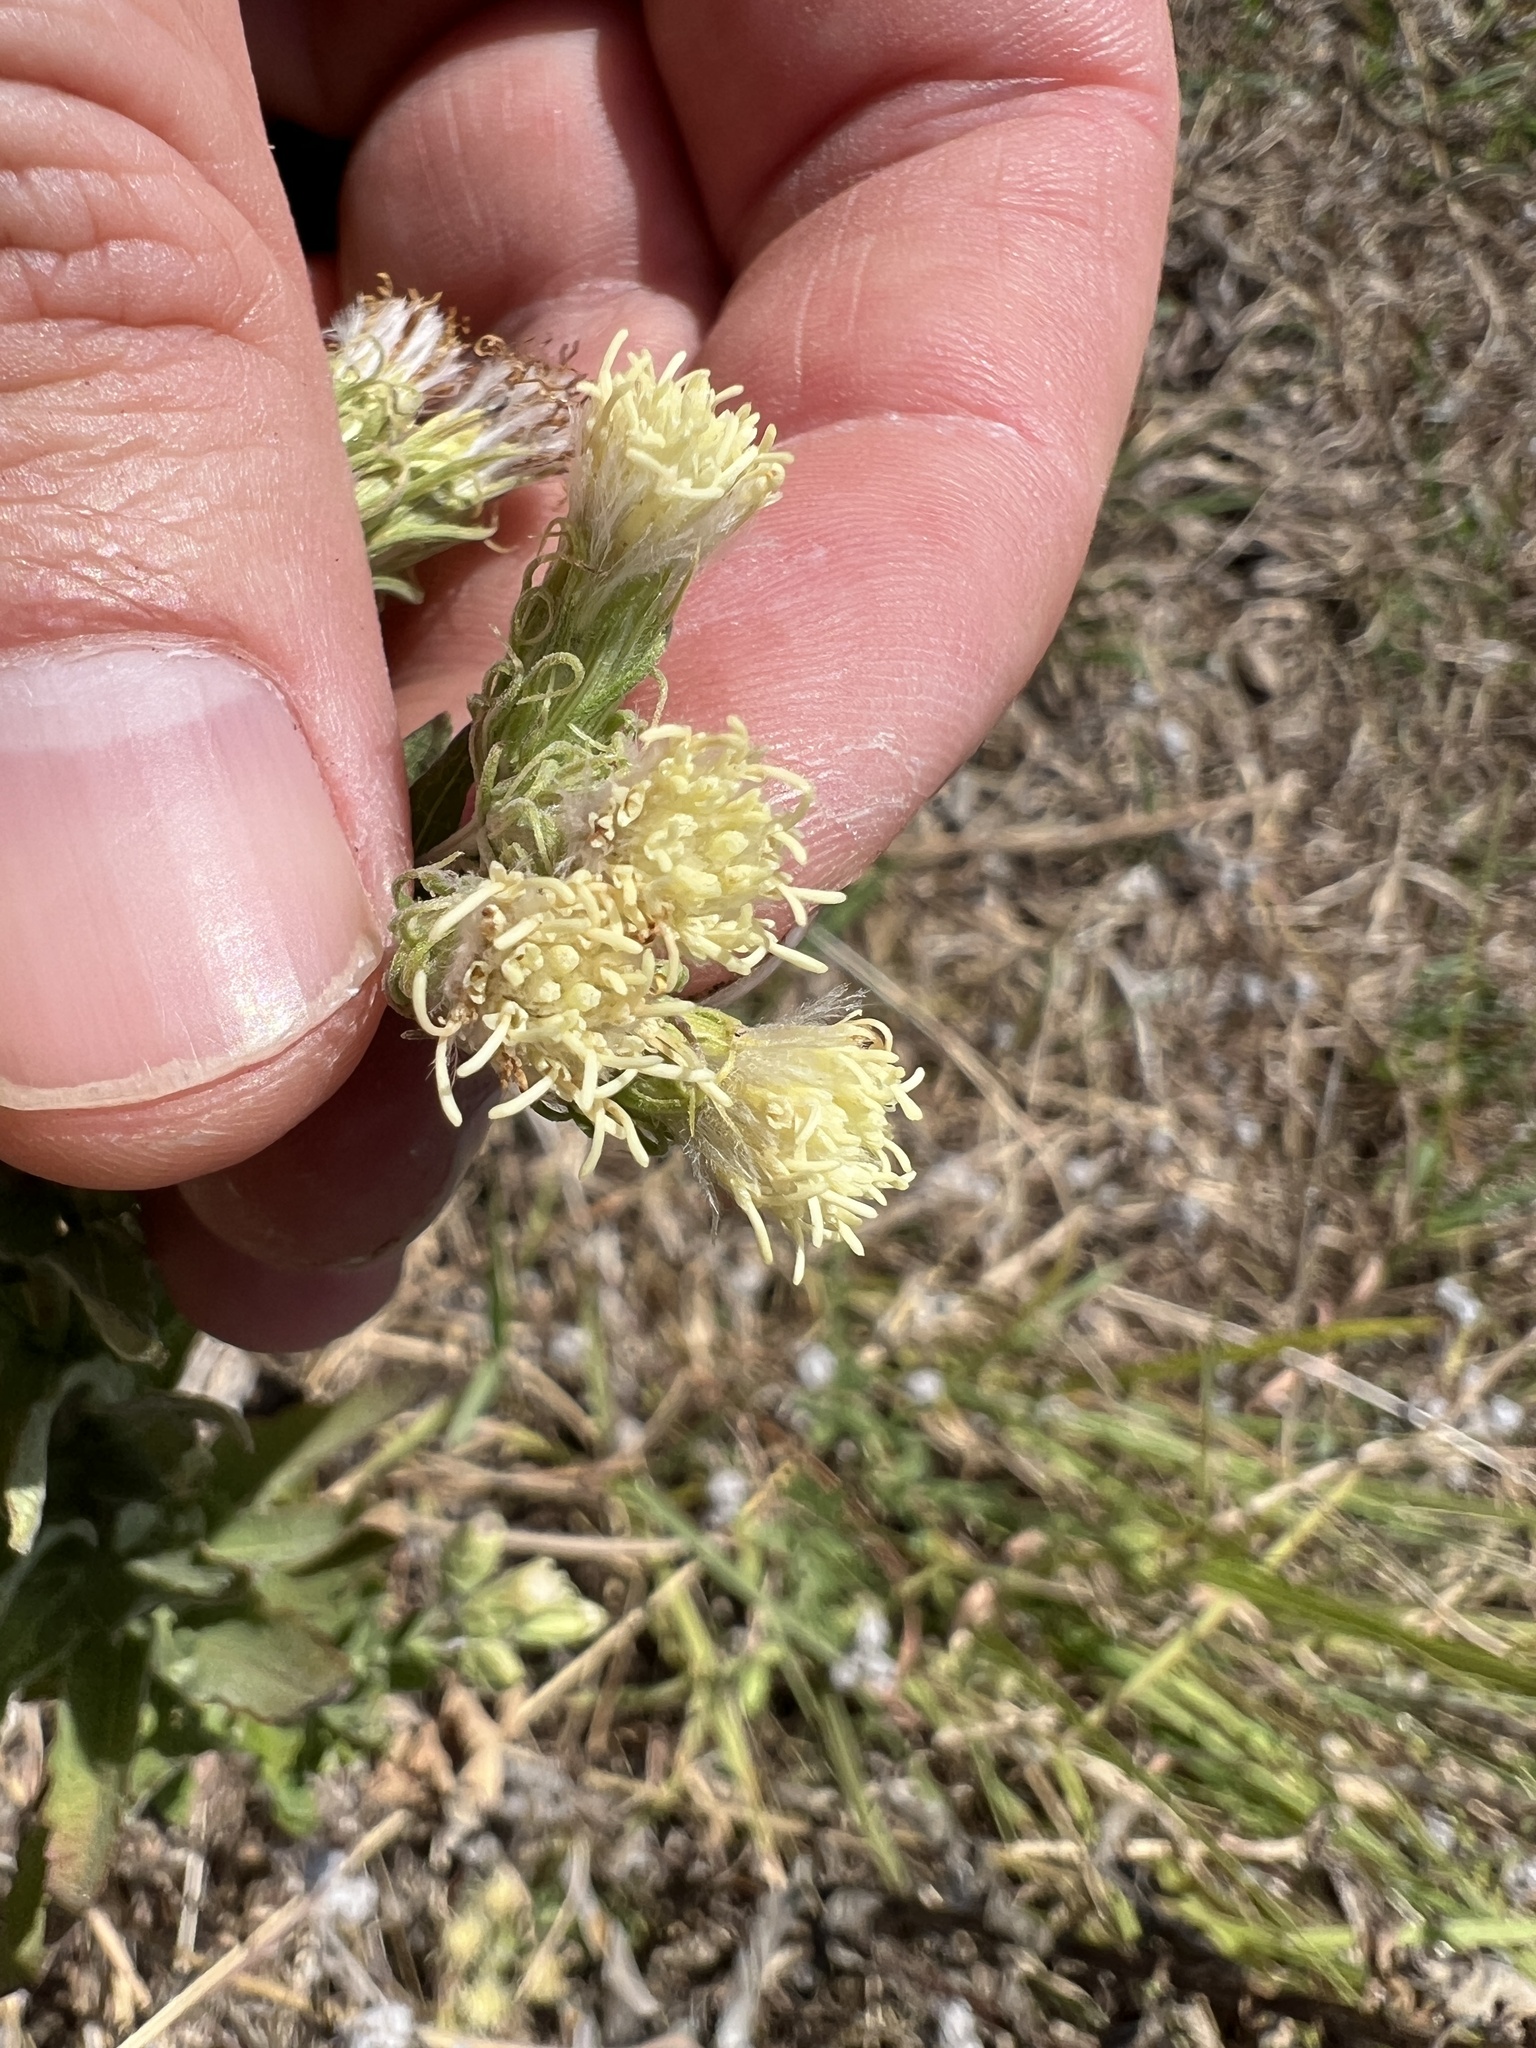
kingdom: Plantae
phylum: Tracheophyta
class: Magnoliopsida
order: Asterales
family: Asteraceae
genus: Brickellia
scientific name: Brickellia eupatorioides
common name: False boneset
